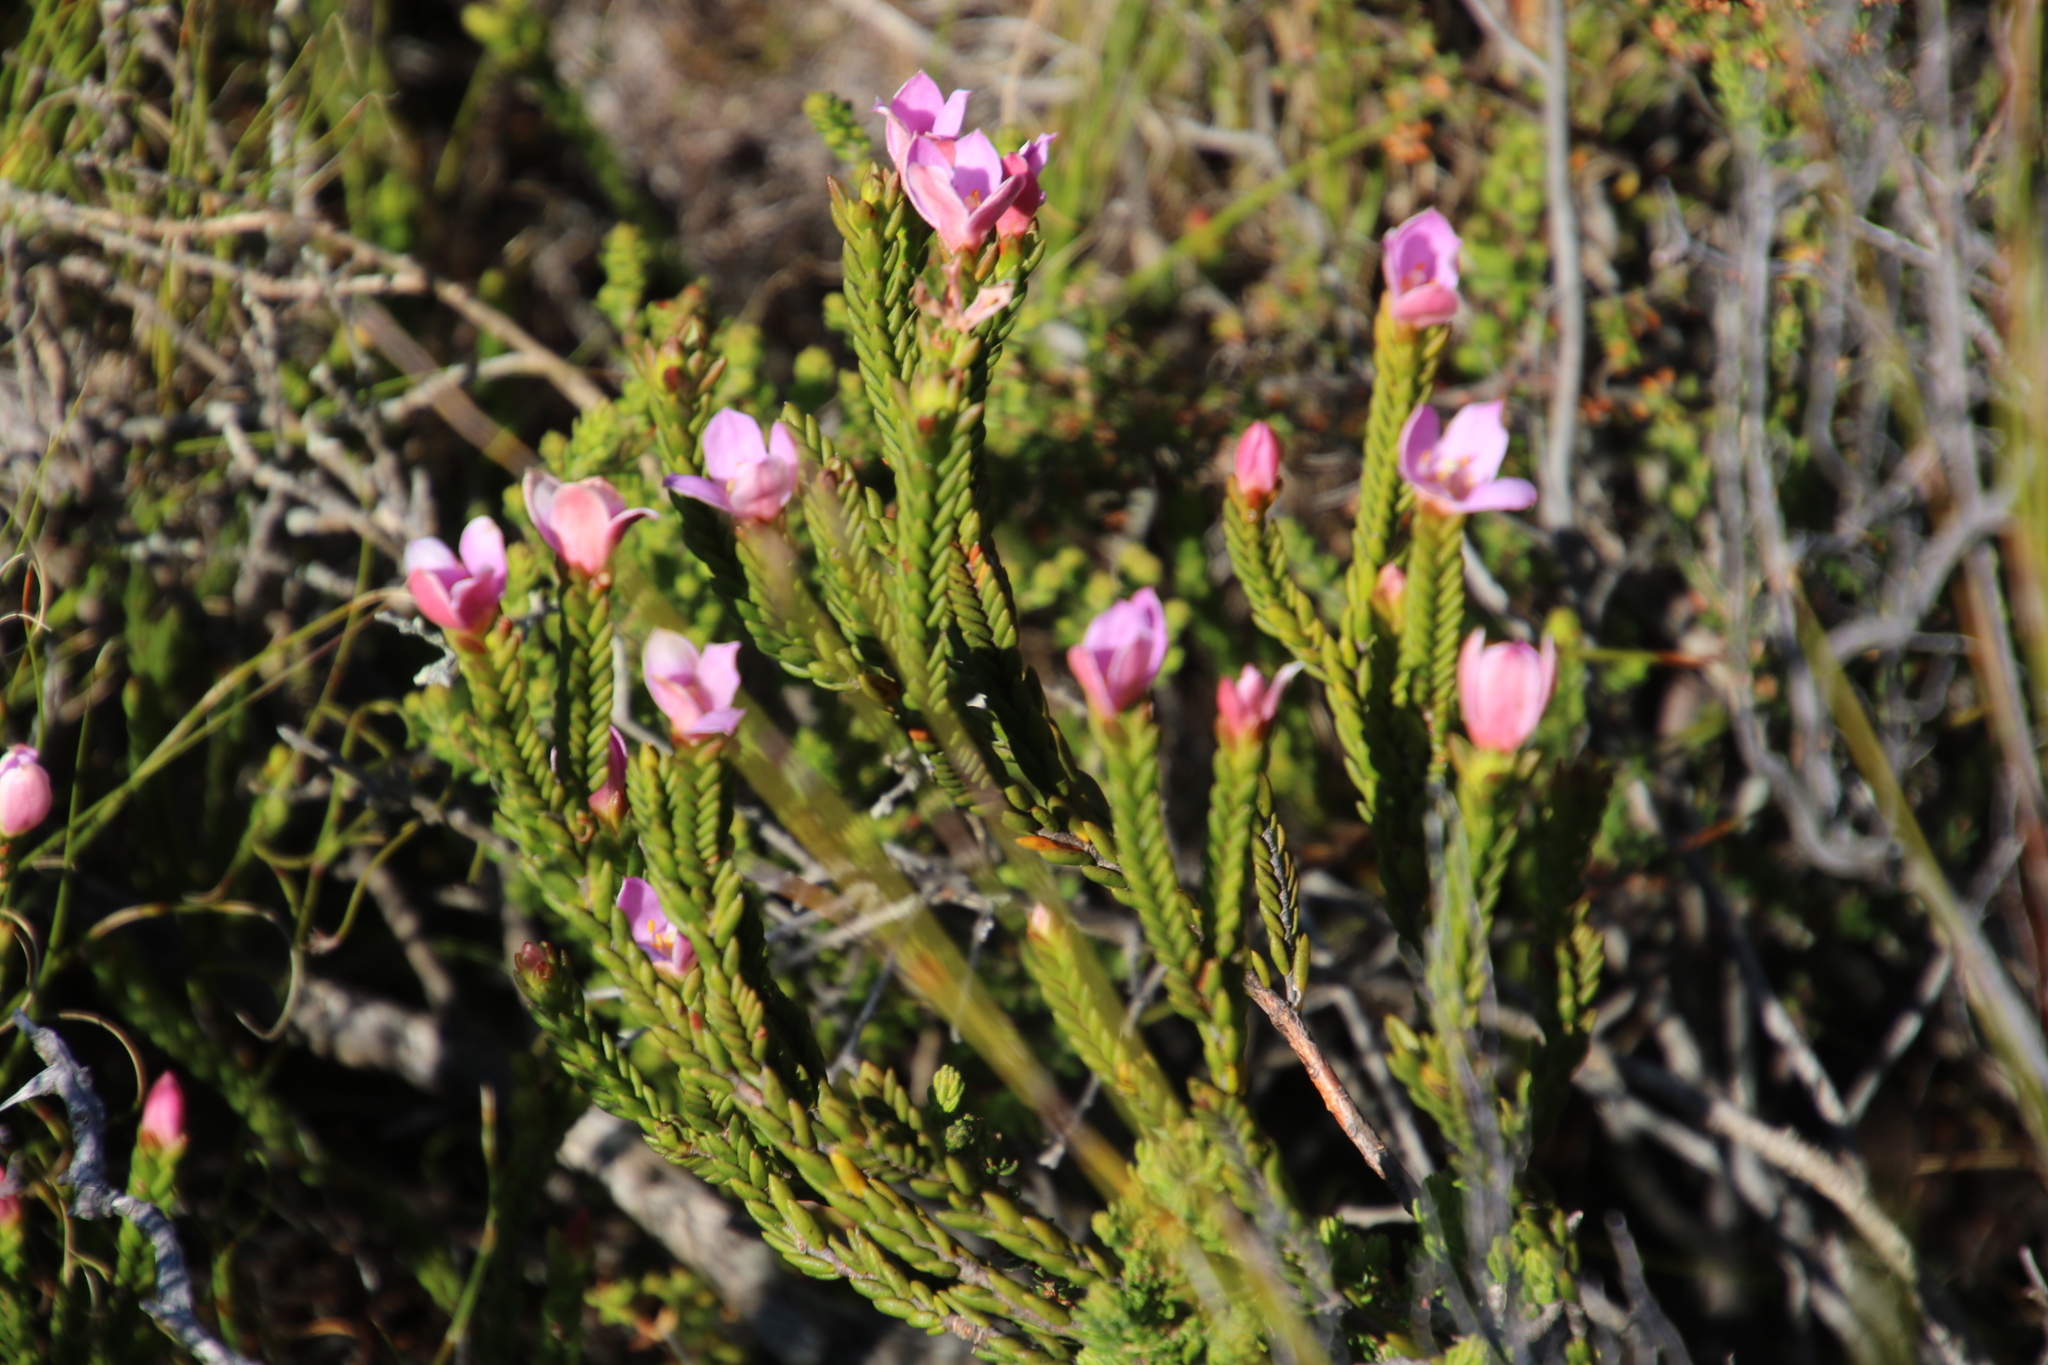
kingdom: Plantae
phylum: Tracheophyta
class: Magnoliopsida
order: Malvales
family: Thymelaeaceae
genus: Lachnaea
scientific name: Lachnaea grandiflora
